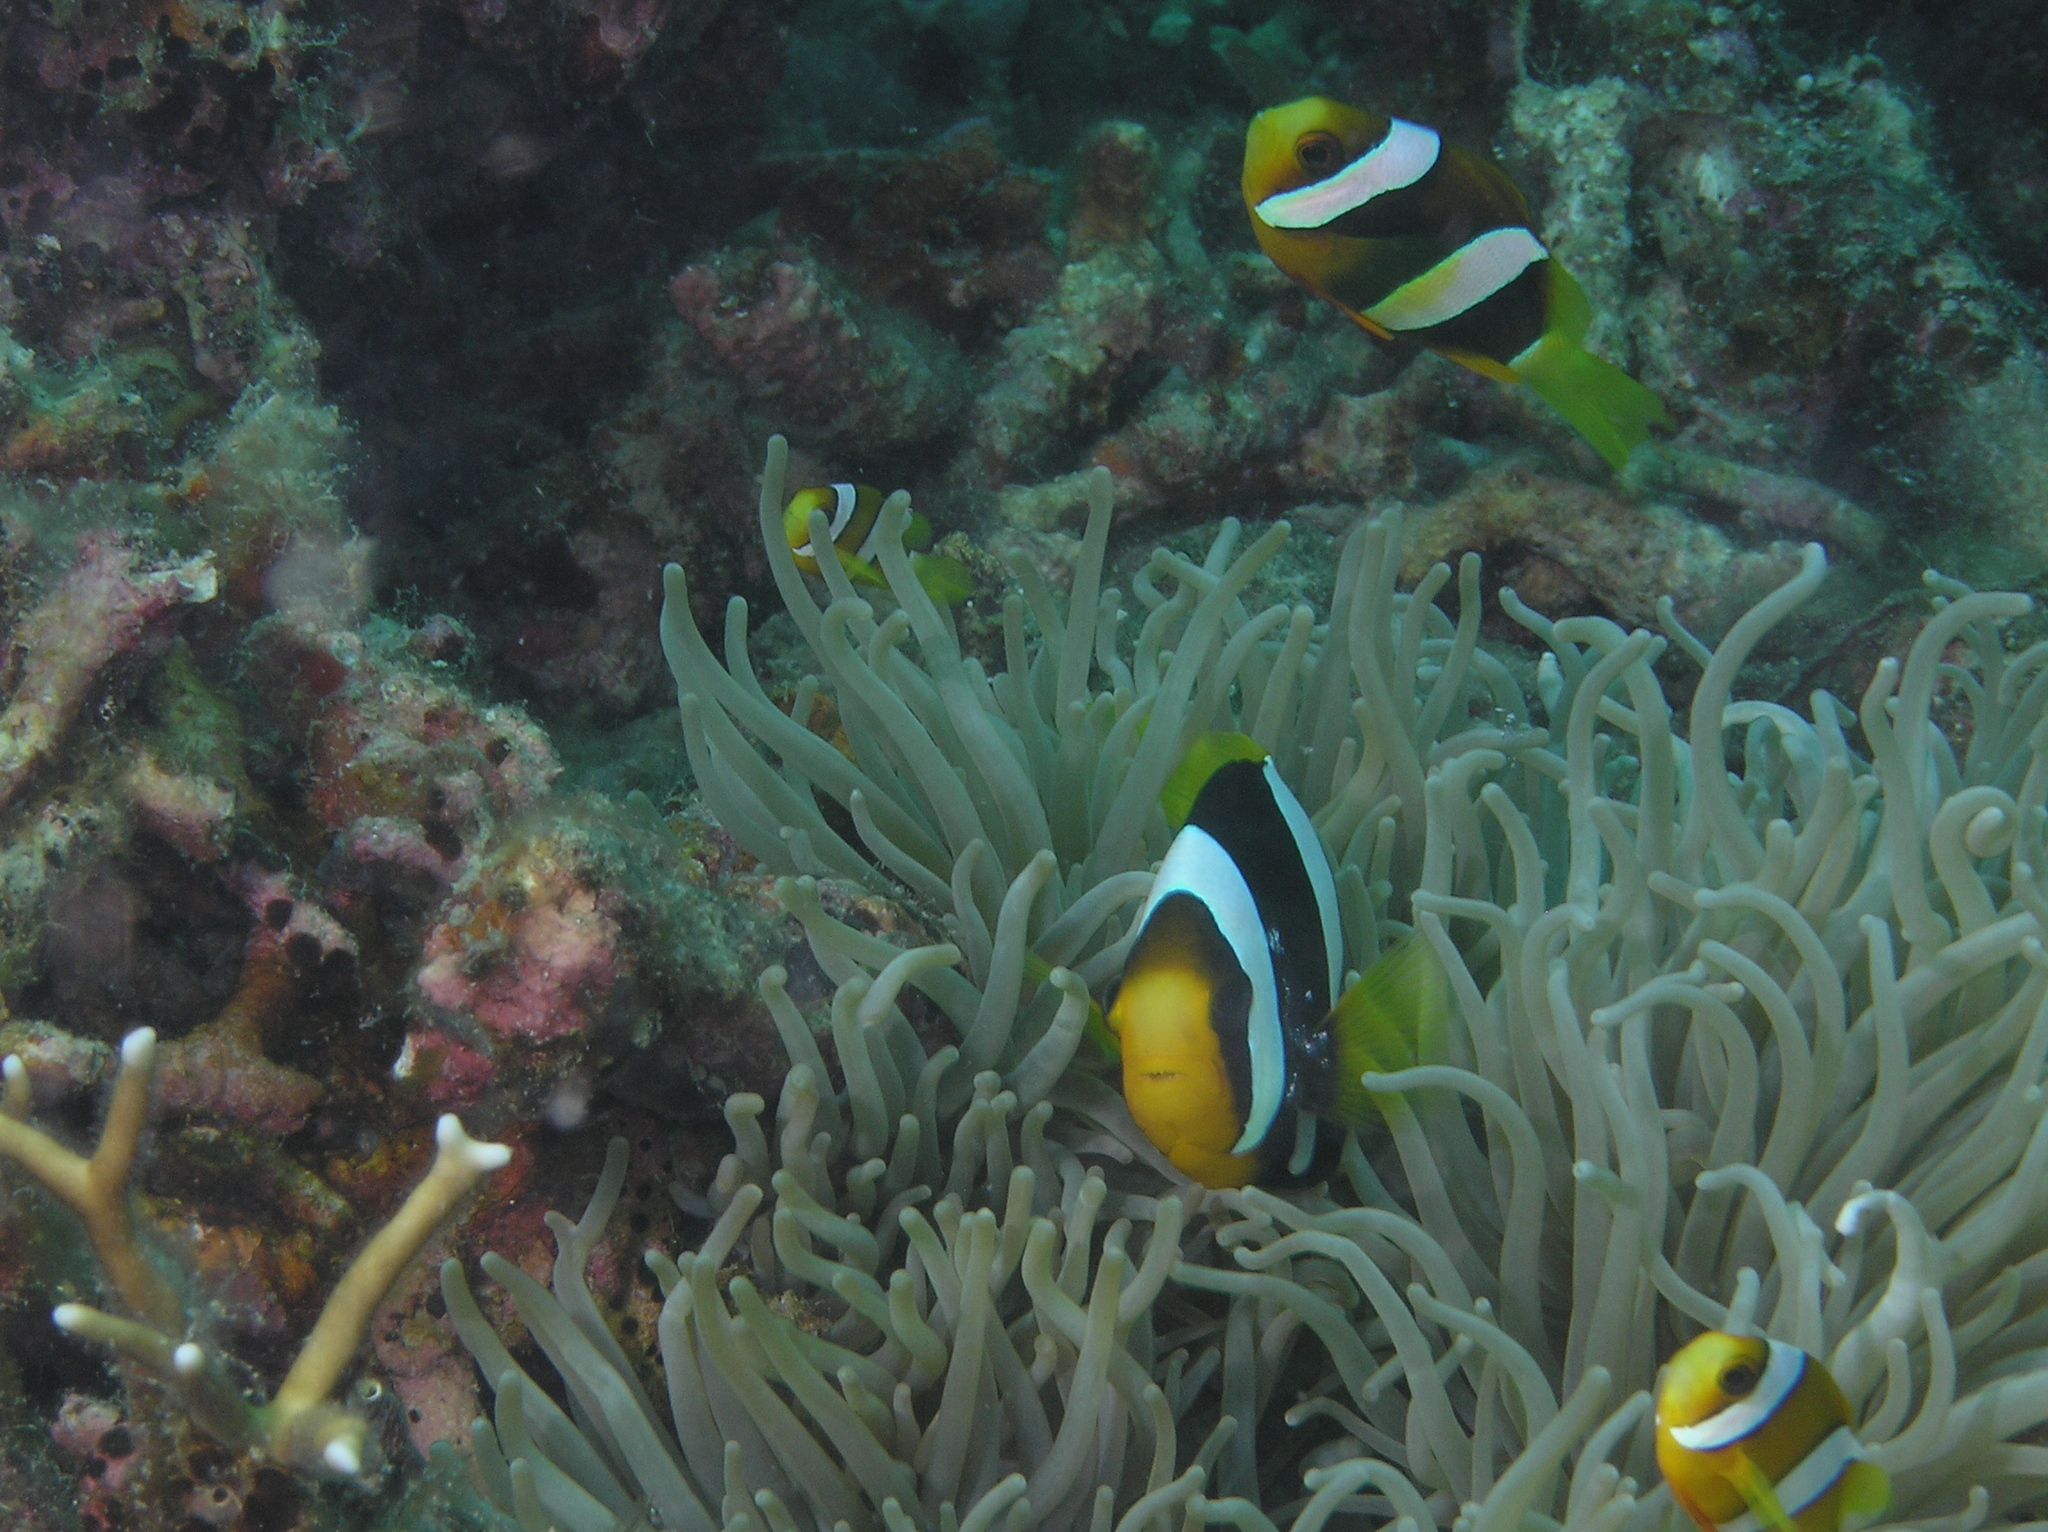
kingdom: Animalia
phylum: Chordata
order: Perciformes
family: Pomacentridae
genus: Amphiprion
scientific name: Amphiprion clarkii
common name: Clark's anemonefish
